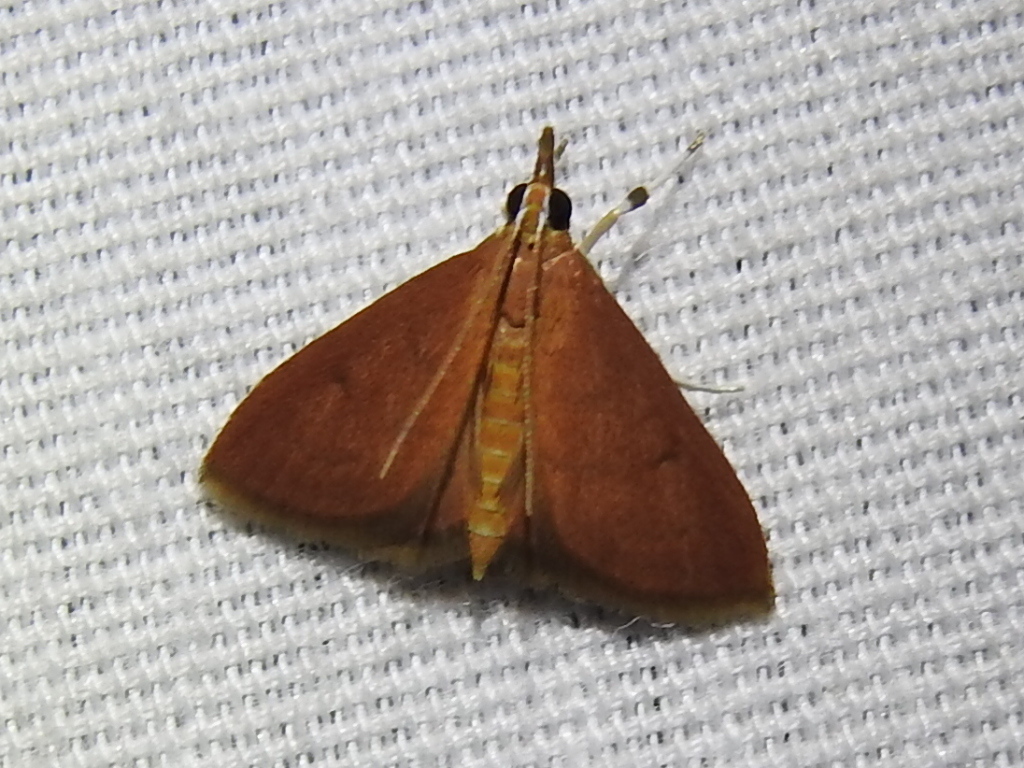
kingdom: Animalia
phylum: Arthropoda
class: Insecta
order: Lepidoptera
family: Crambidae
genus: Oenobotys
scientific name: Oenobotys vinotinctalis
